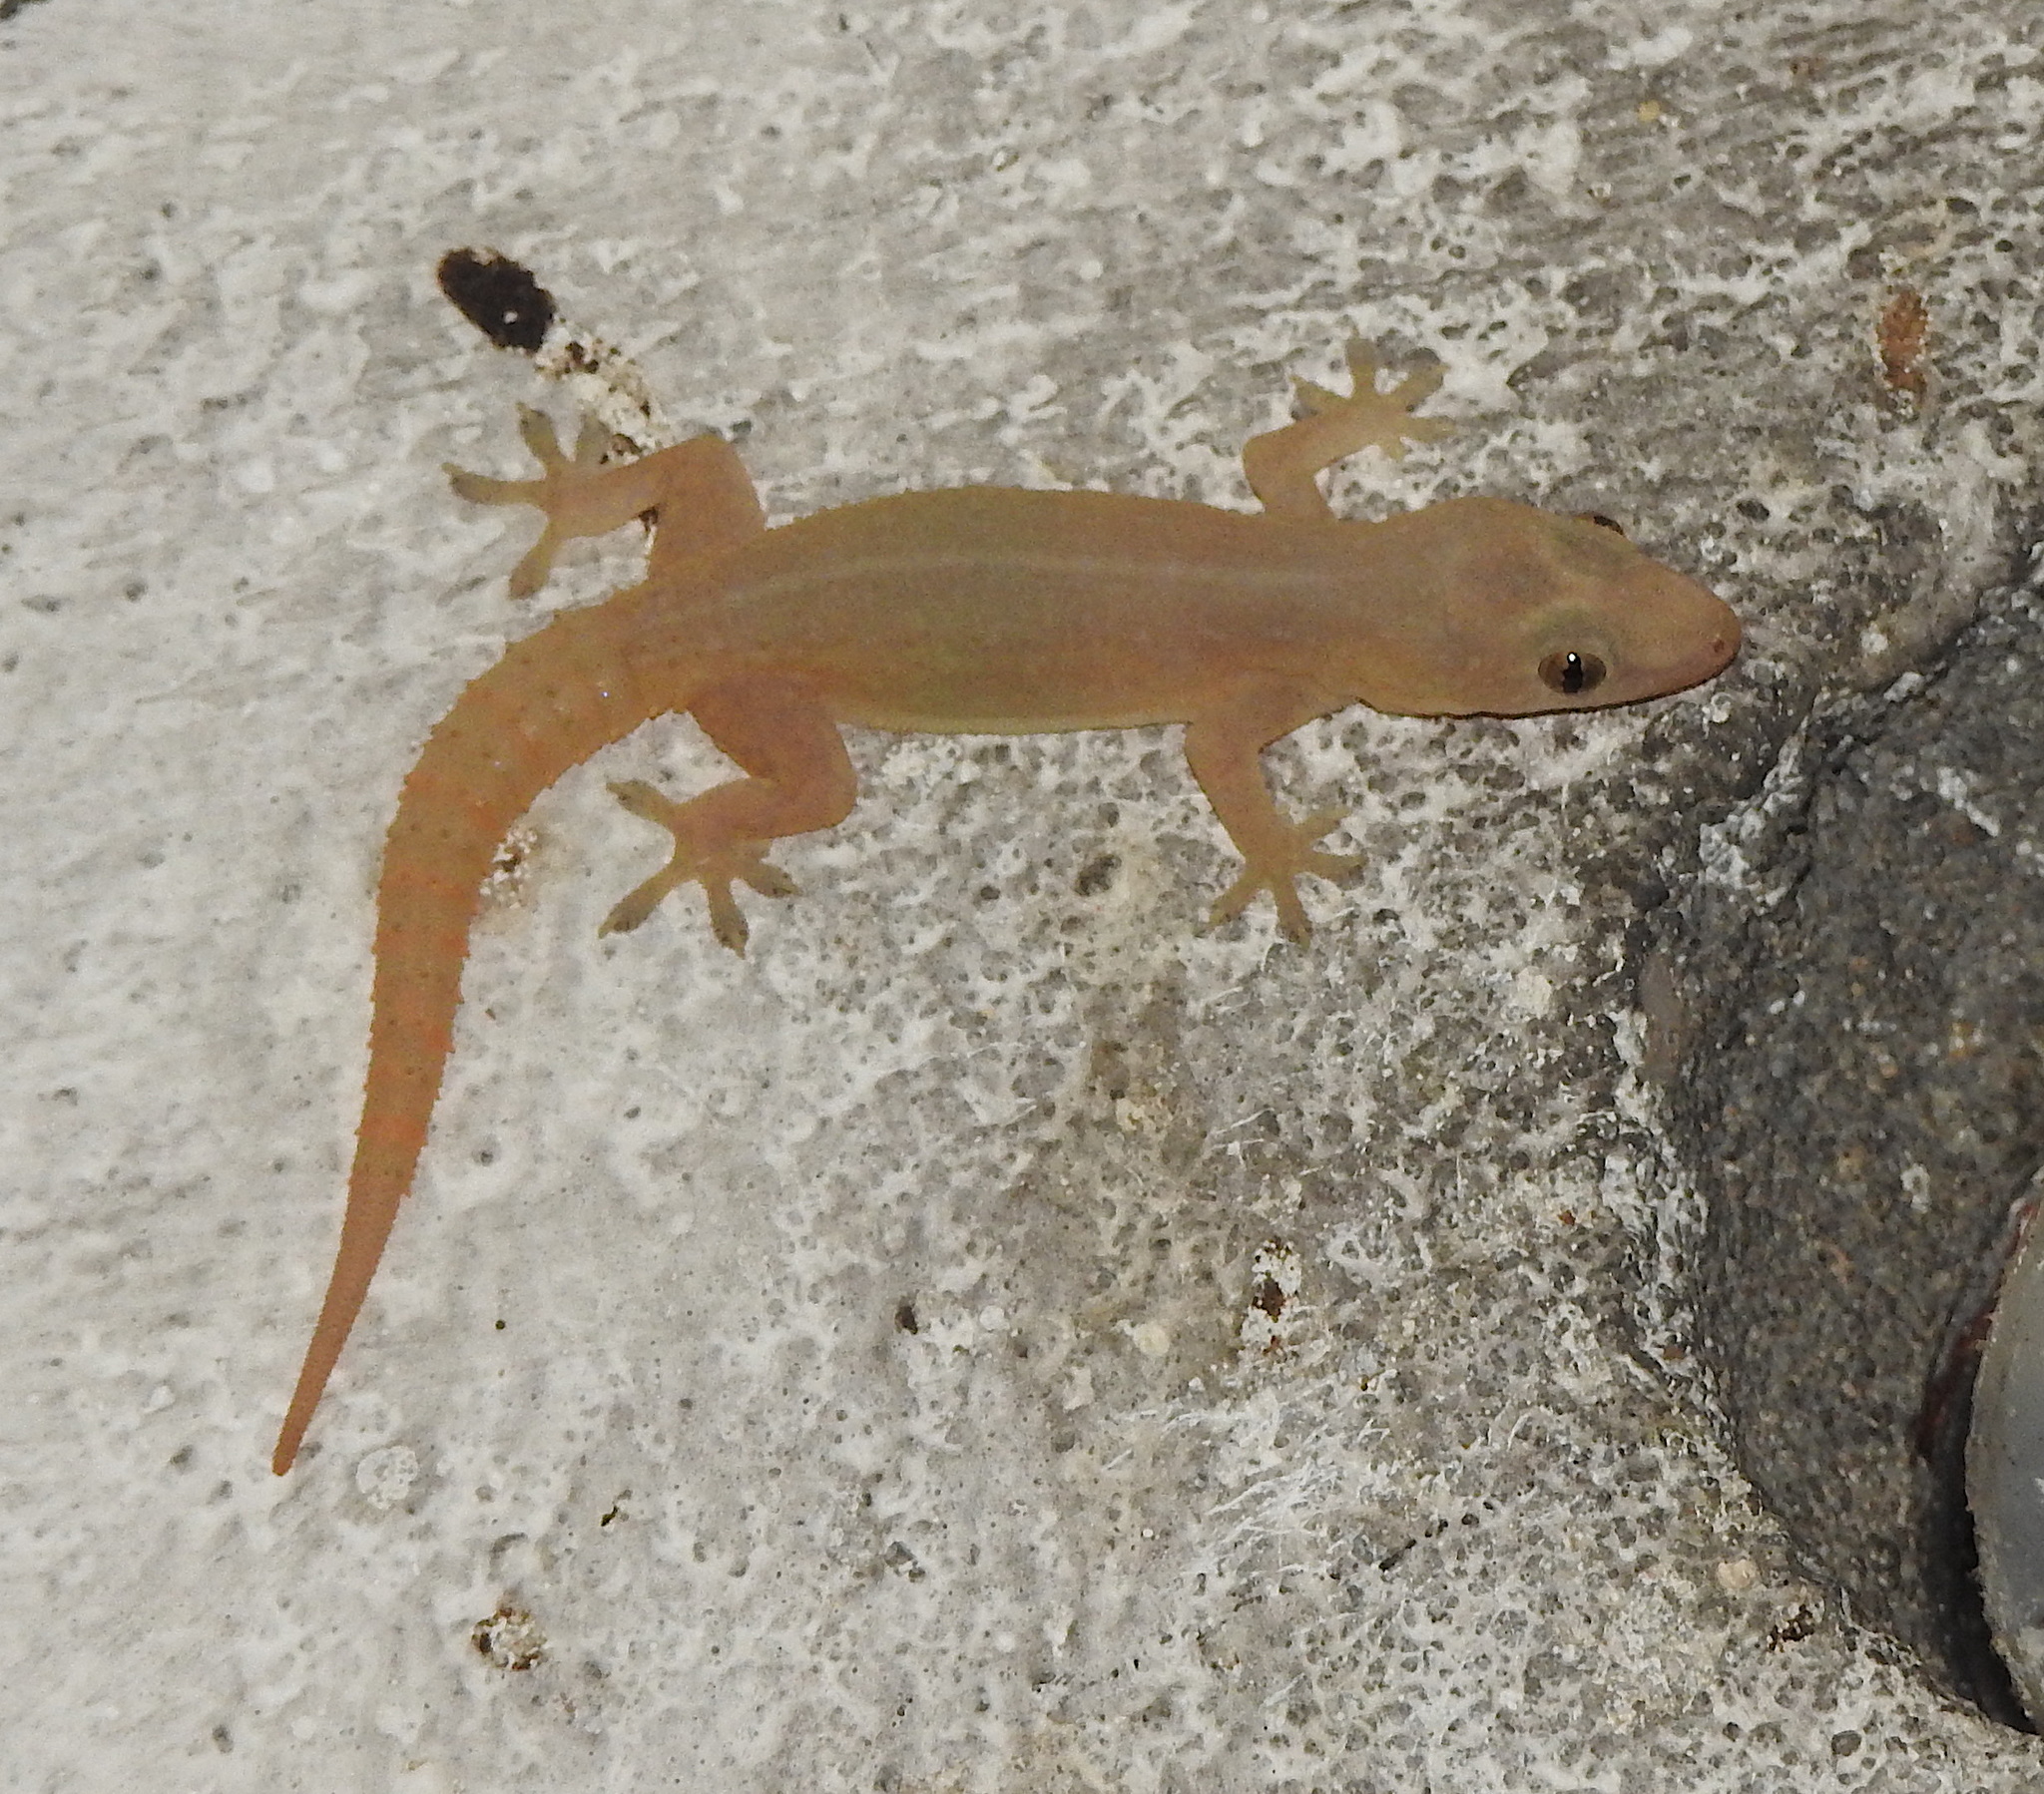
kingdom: Animalia
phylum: Chordata
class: Squamata
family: Gekkonidae
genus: Hemidactylus
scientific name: Hemidactylus frenatus
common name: Common house gecko
